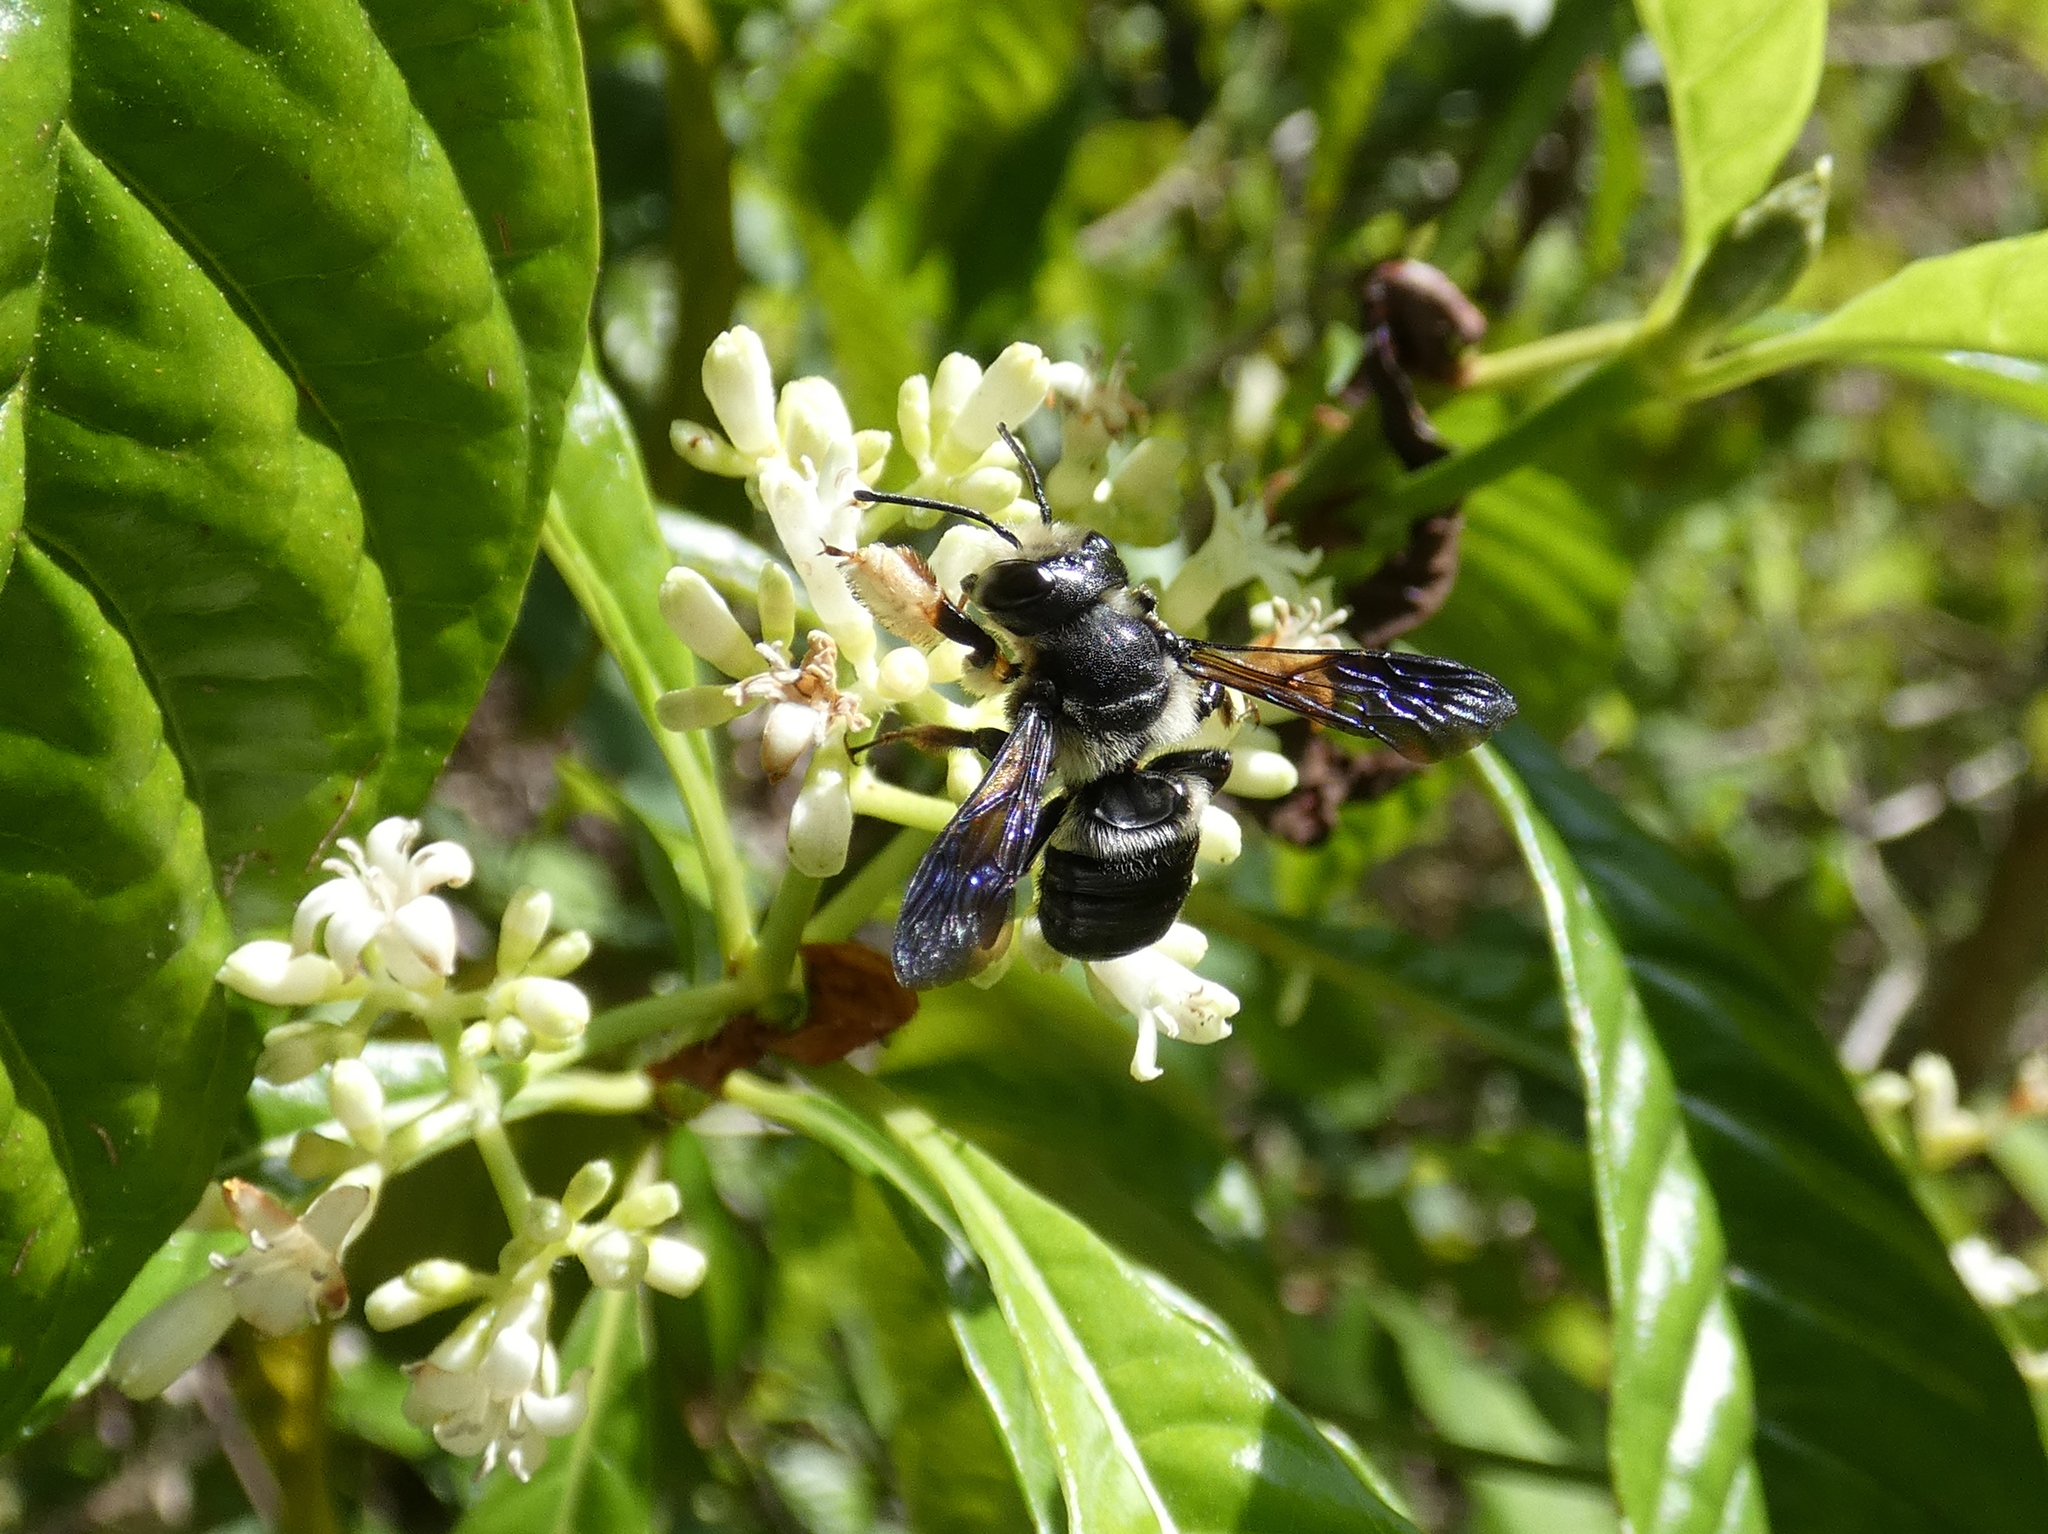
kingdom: Animalia
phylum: Arthropoda
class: Insecta
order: Hymenoptera
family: Megachilidae
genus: Megachile
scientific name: Megachile xylocopoides
